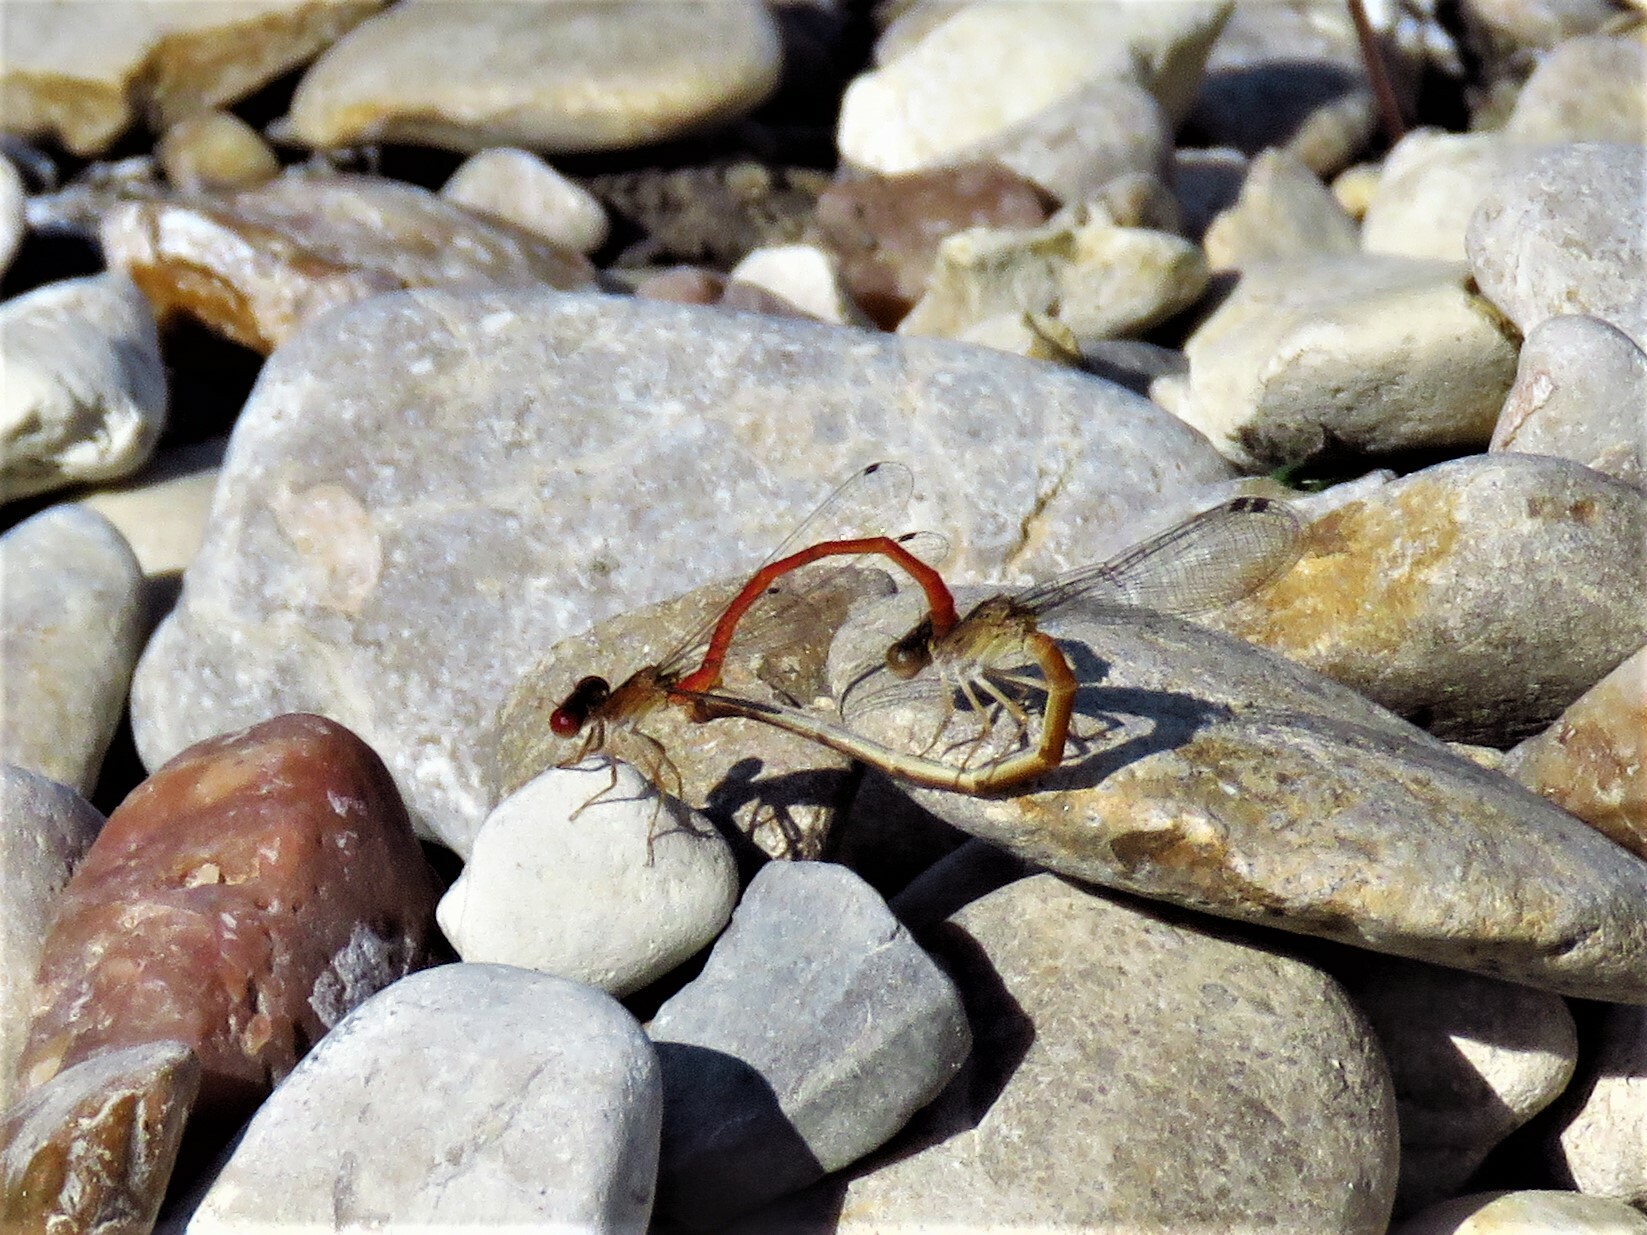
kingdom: Animalia
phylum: Arthropoda
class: Insecta
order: Odonata
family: Coenagrionidae
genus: Telebasis
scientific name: Telebasis salva
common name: Desert firetail
